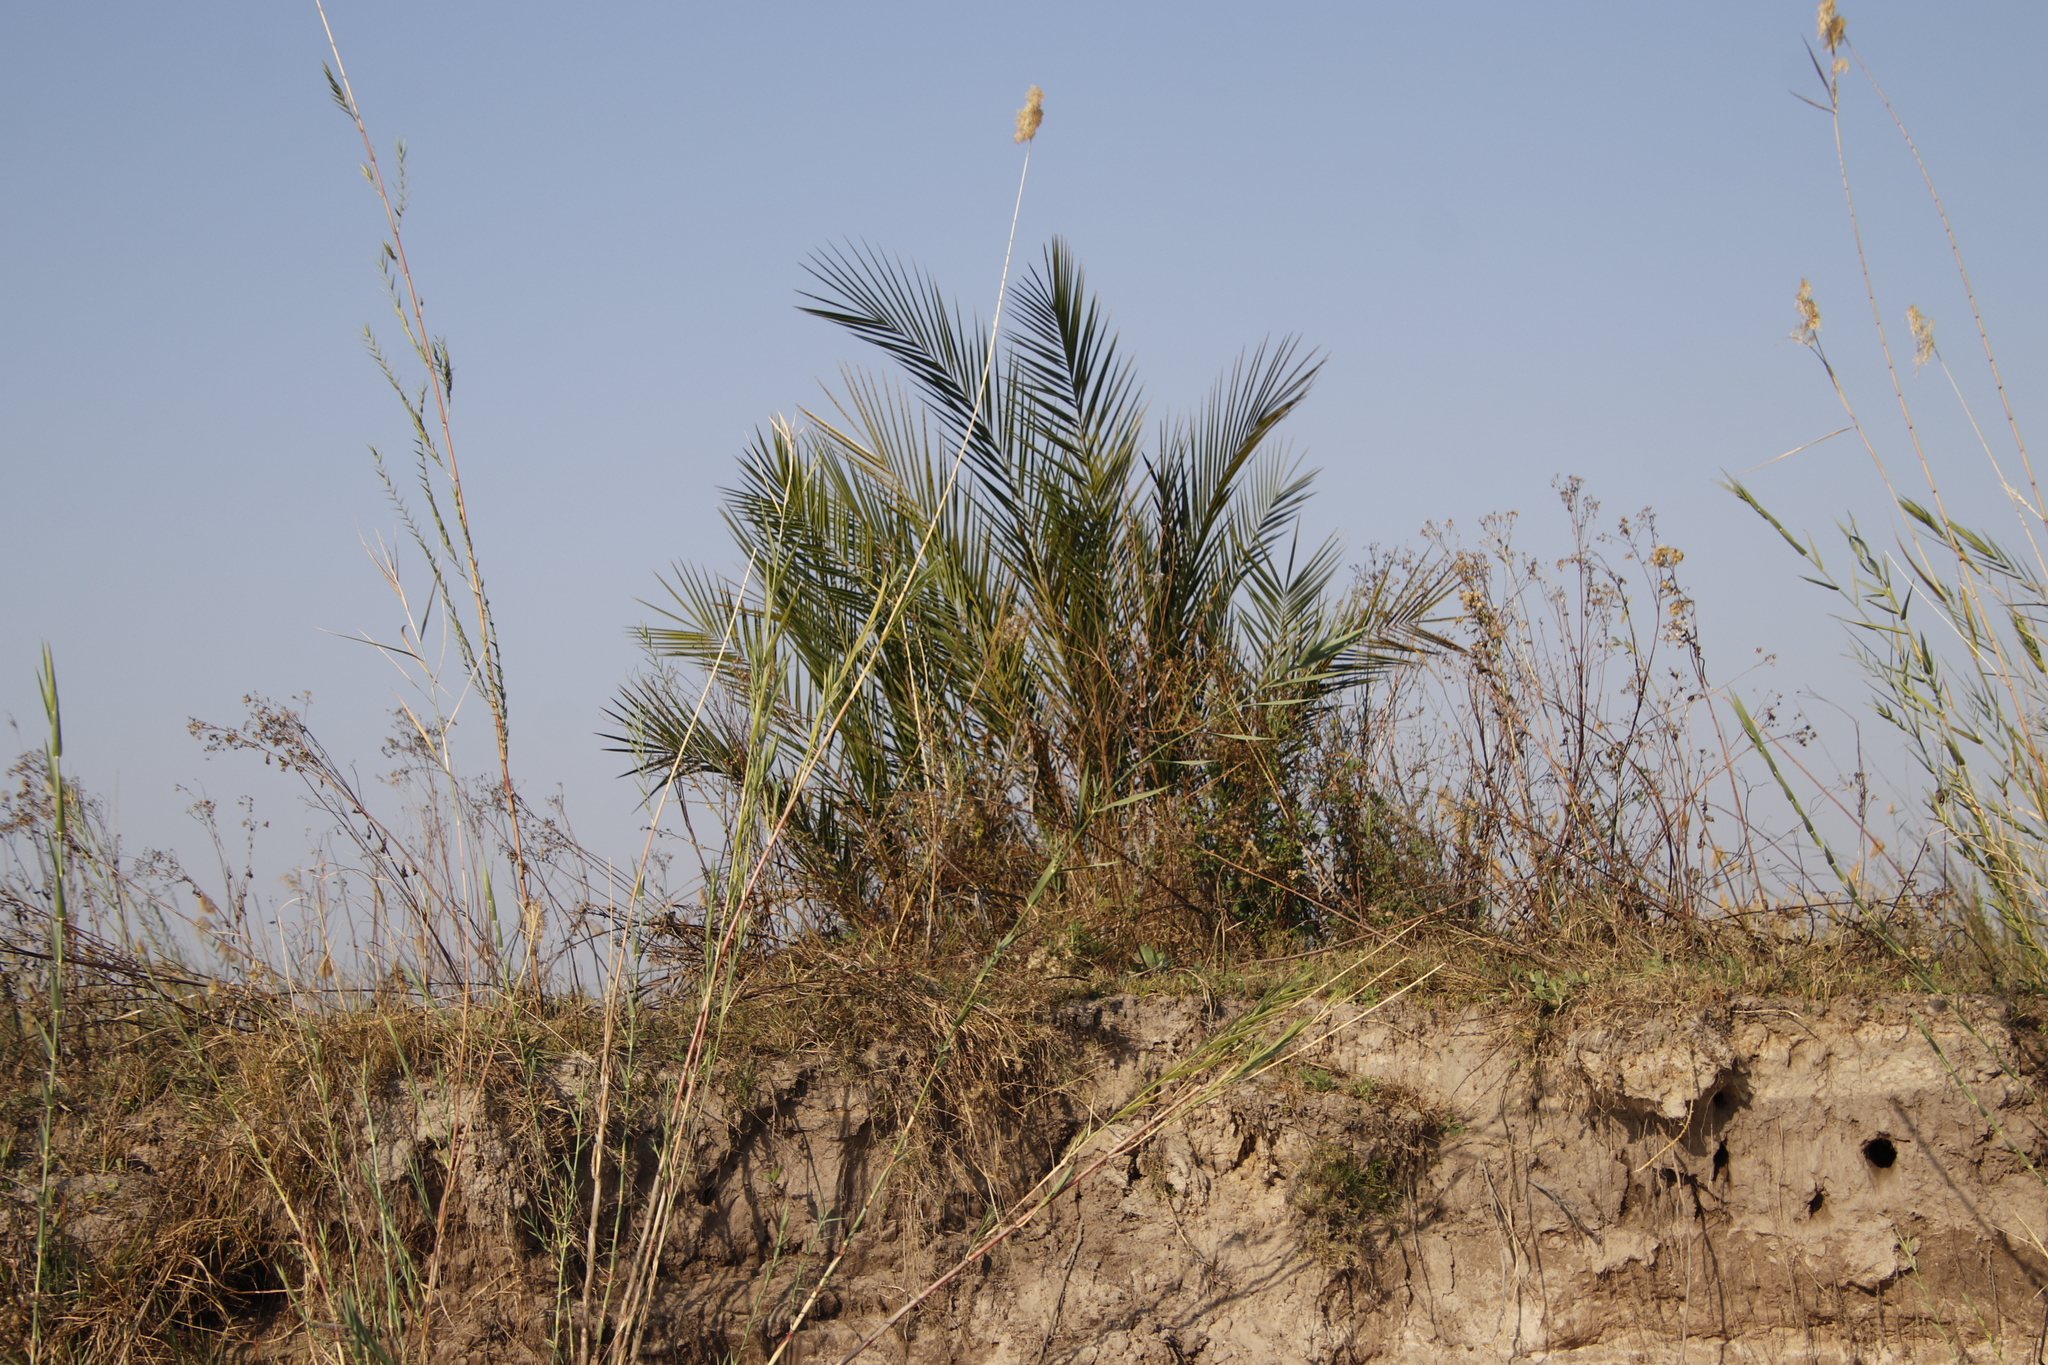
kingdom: Plantae
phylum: Tracheophyta
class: Liliopsida
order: Arecales
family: Arecaceae
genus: Phoenix
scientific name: Phoenix reclinata
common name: Senegal date palm
